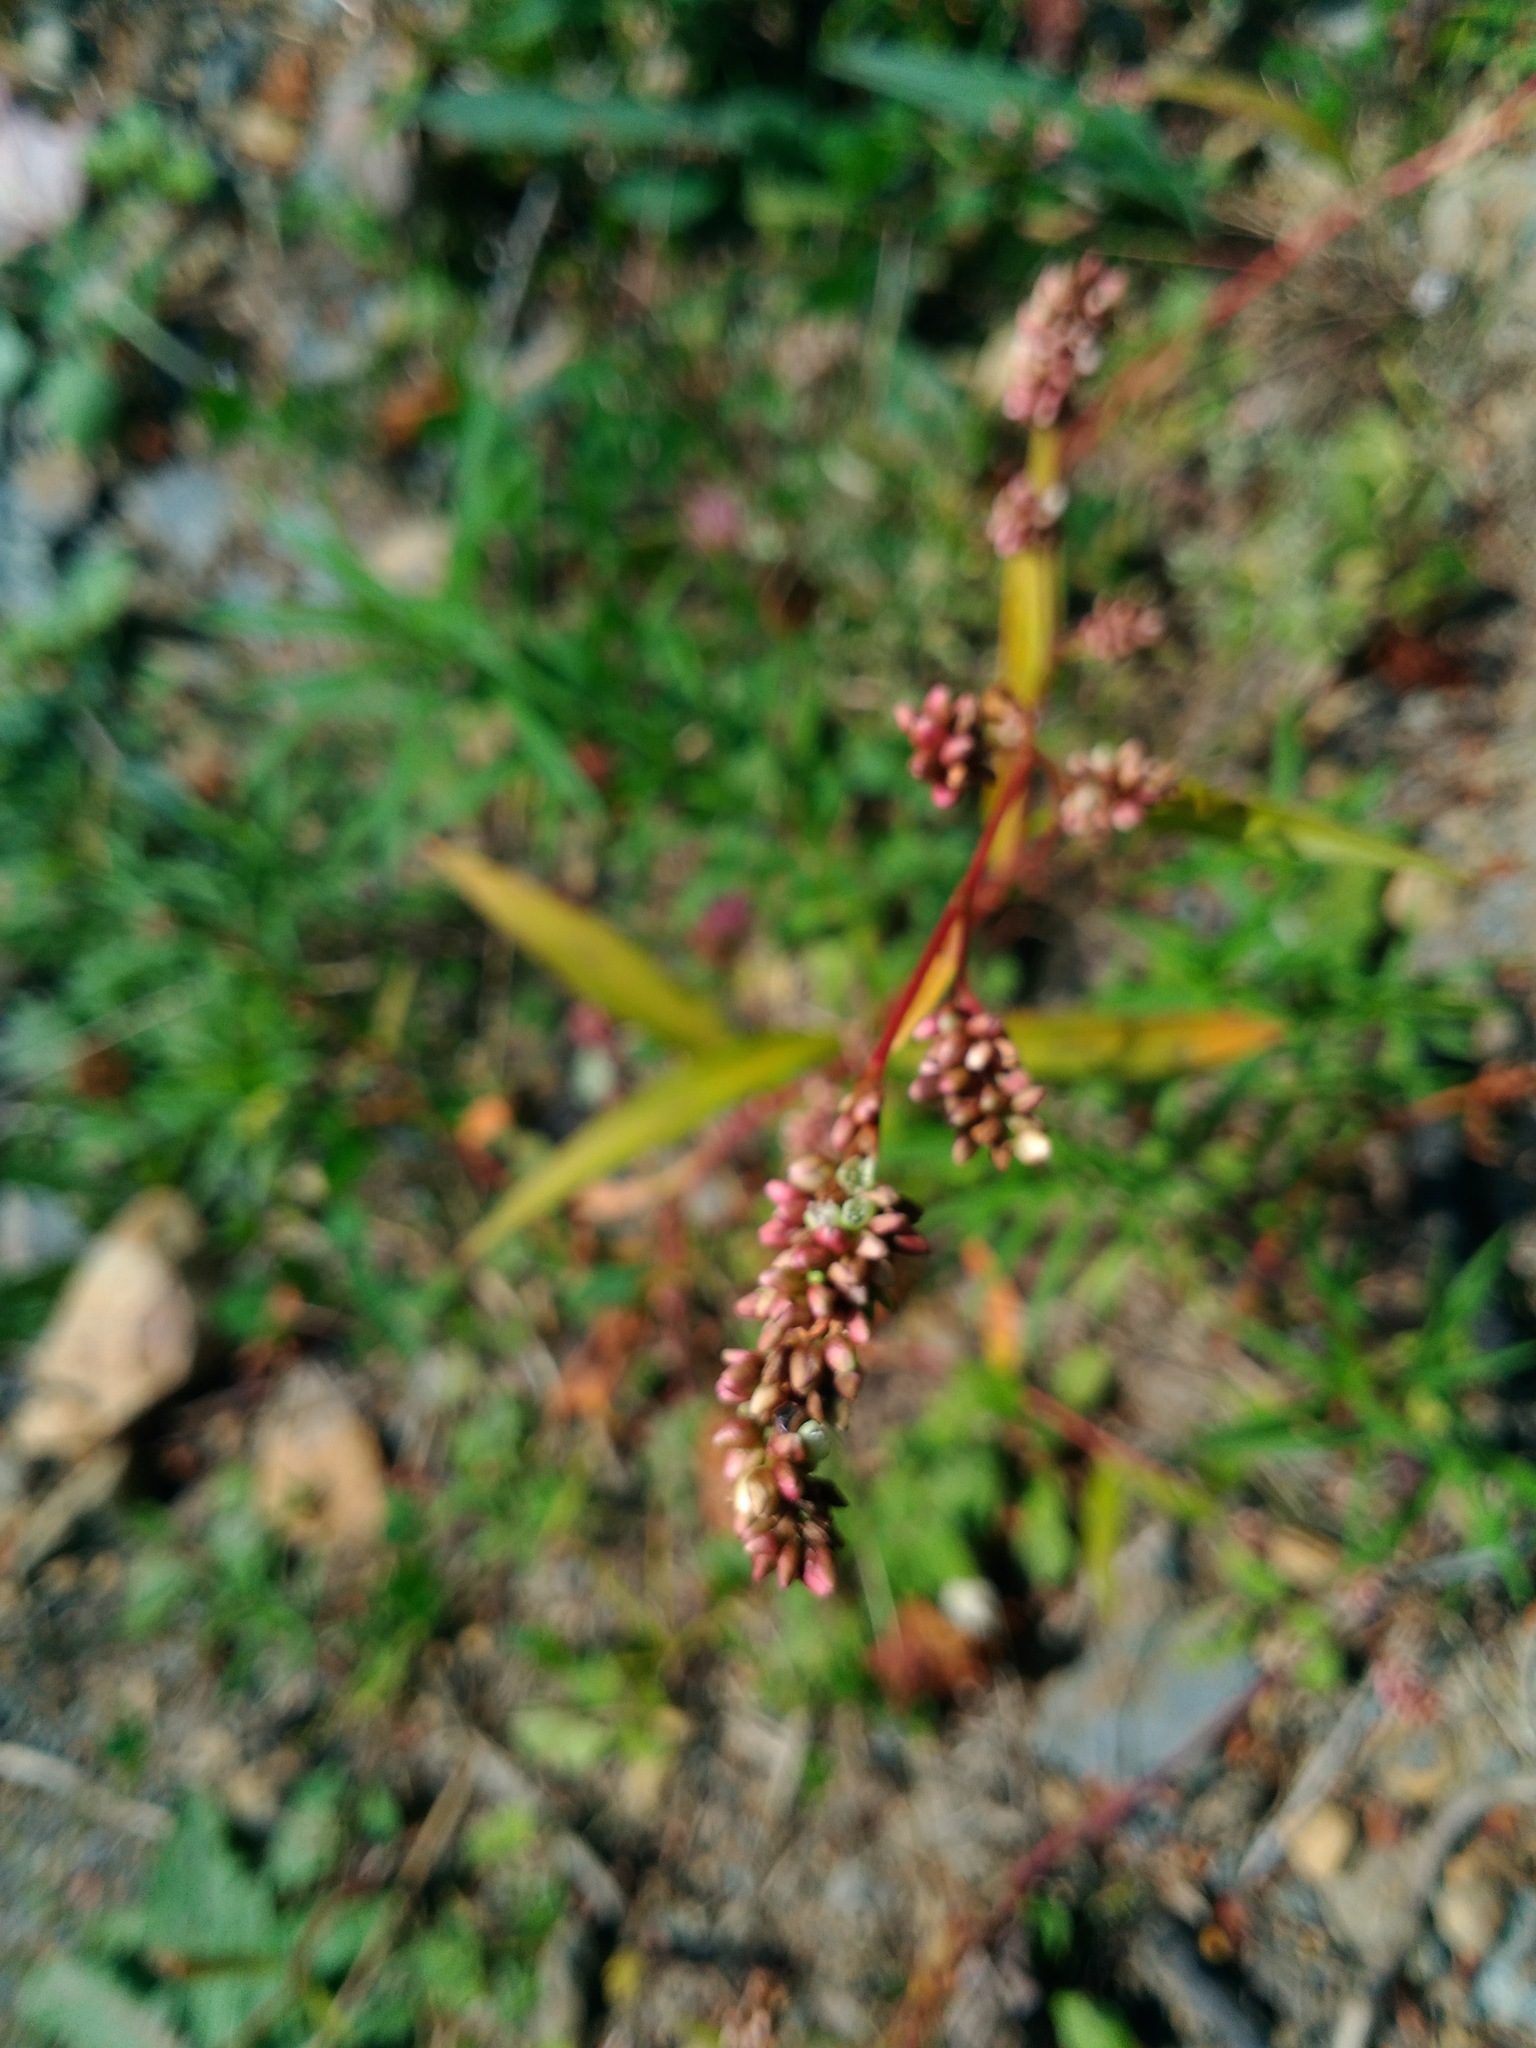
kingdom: Plantae
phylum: Tracheophyta
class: Magnoliopsida
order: Caryophyllales
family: Polygonaceae
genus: Persicaria
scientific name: Persicaria maculosa
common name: Redshank
